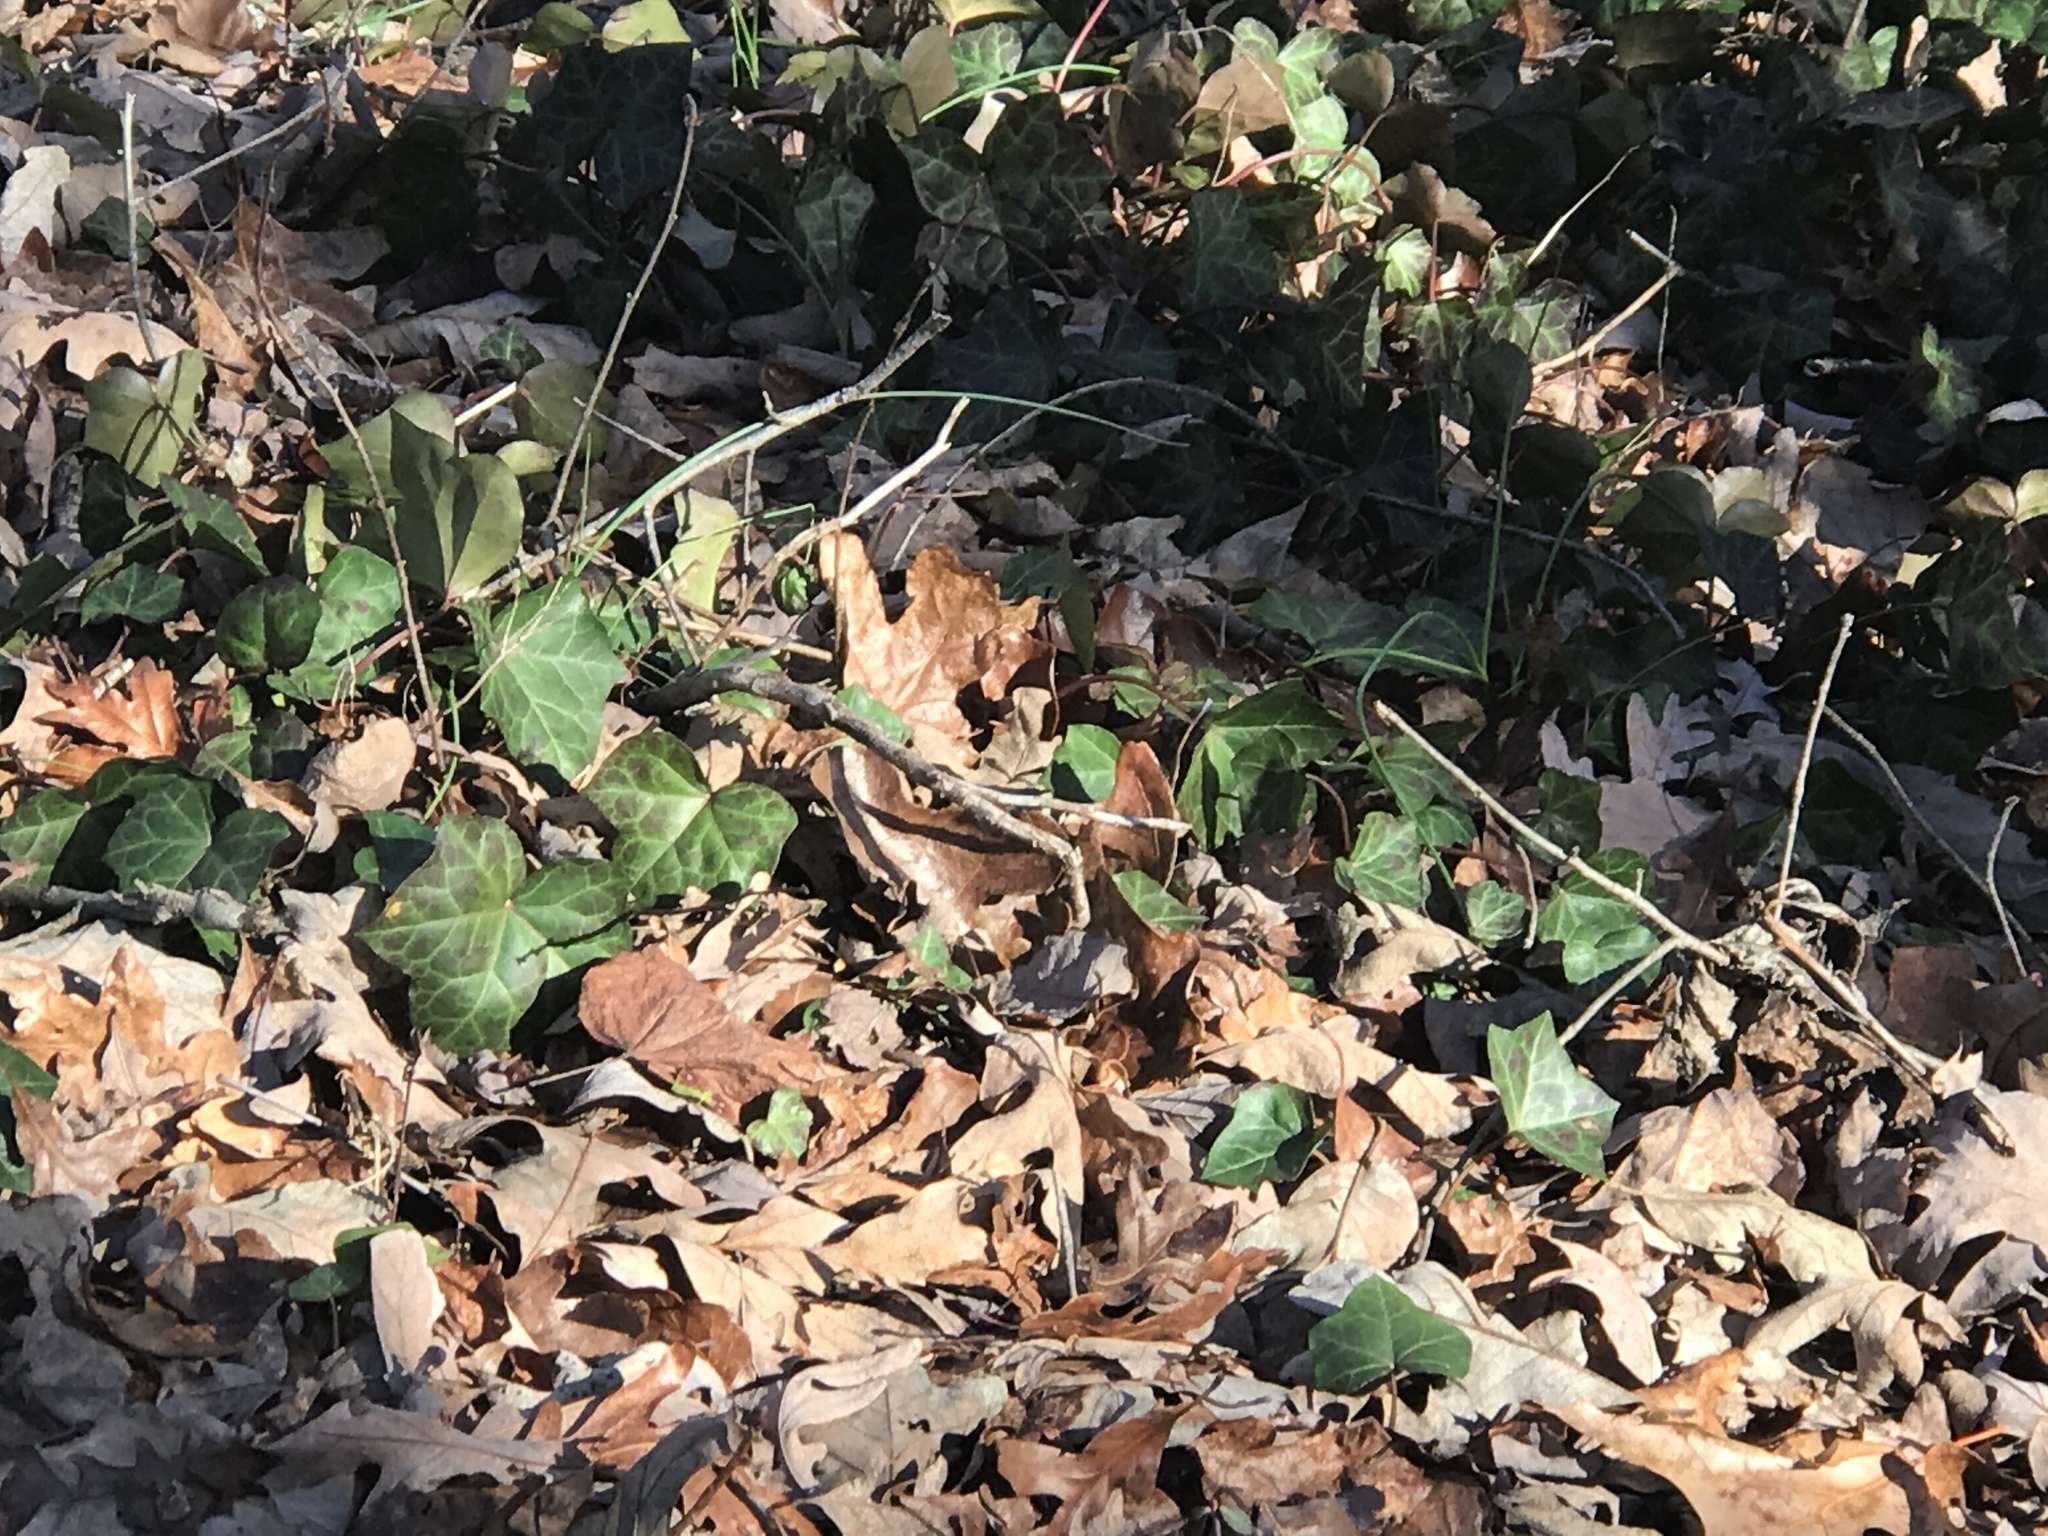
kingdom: Plantae
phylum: Tracheophyta
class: Magnoliopsida
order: Apiales
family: Araliaceae
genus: Hedera
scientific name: Hedera helix
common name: Ivy
